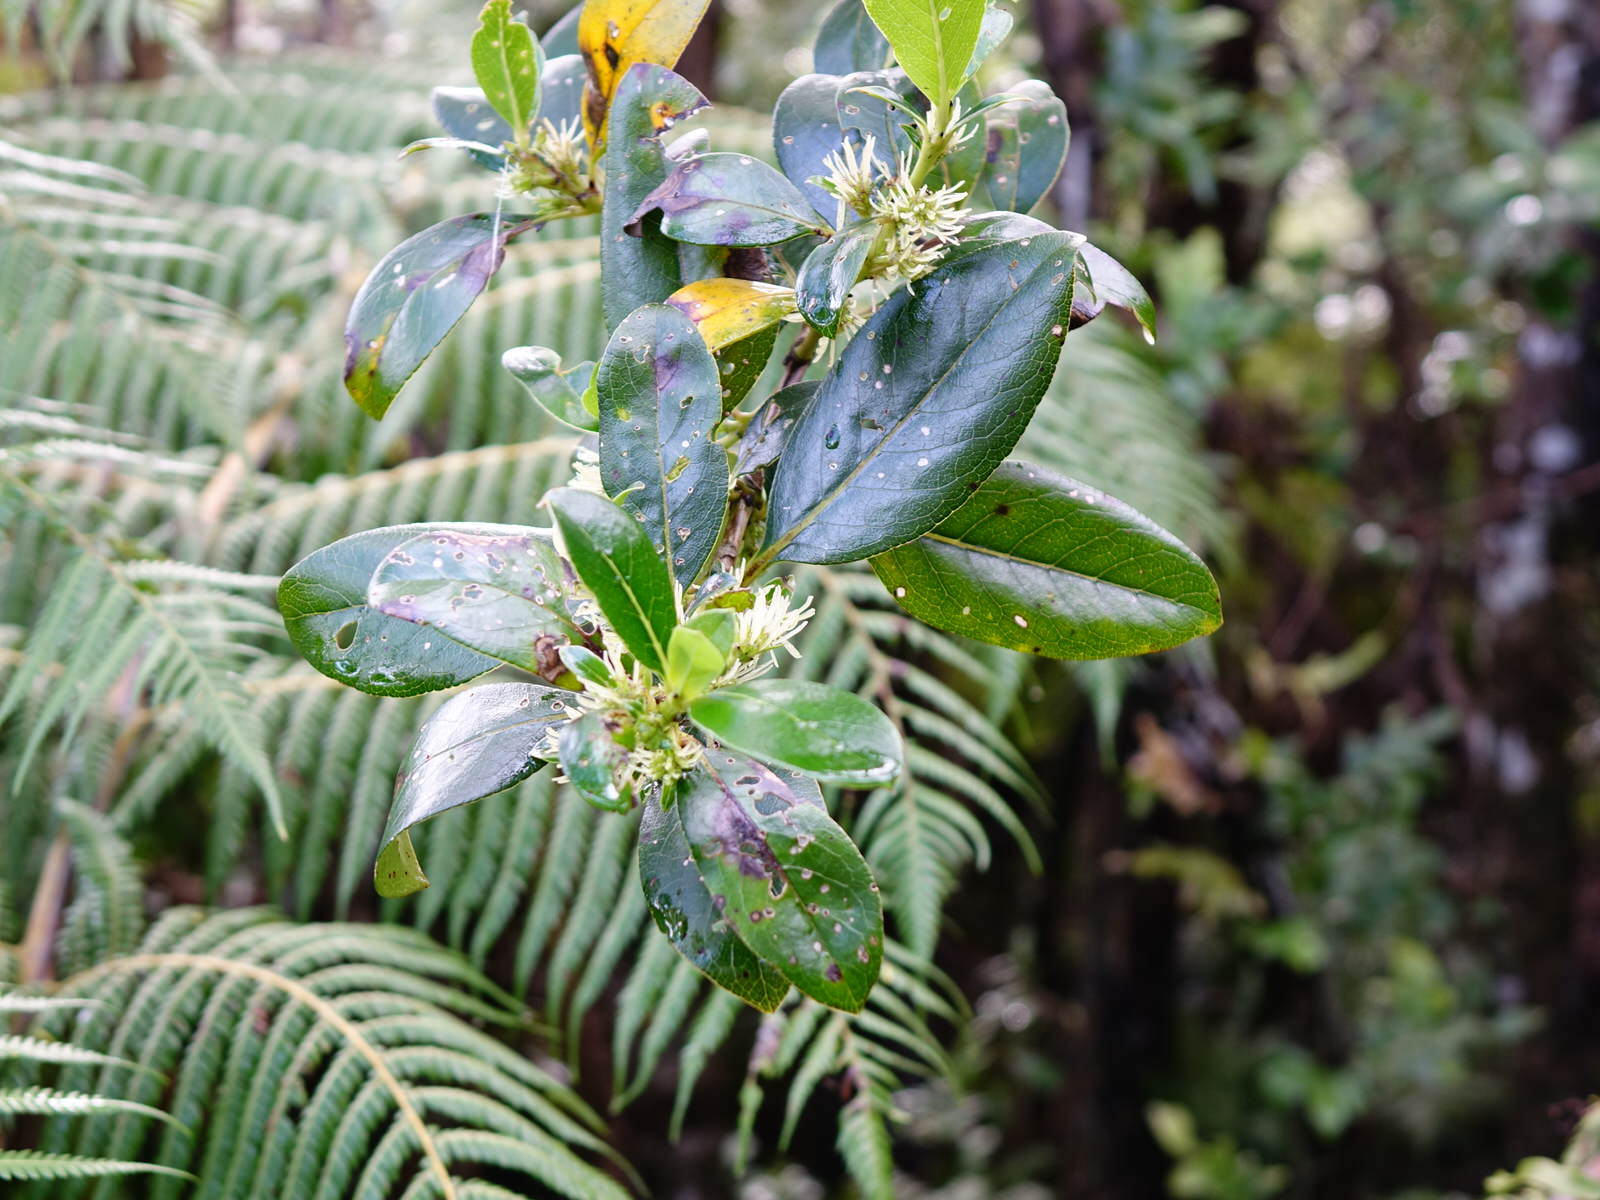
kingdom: Plantae
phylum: Tracheophyta
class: Magnoliopsida
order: Gentianales
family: Rubiaceae
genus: Coprosma
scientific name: Coprosma robusta
